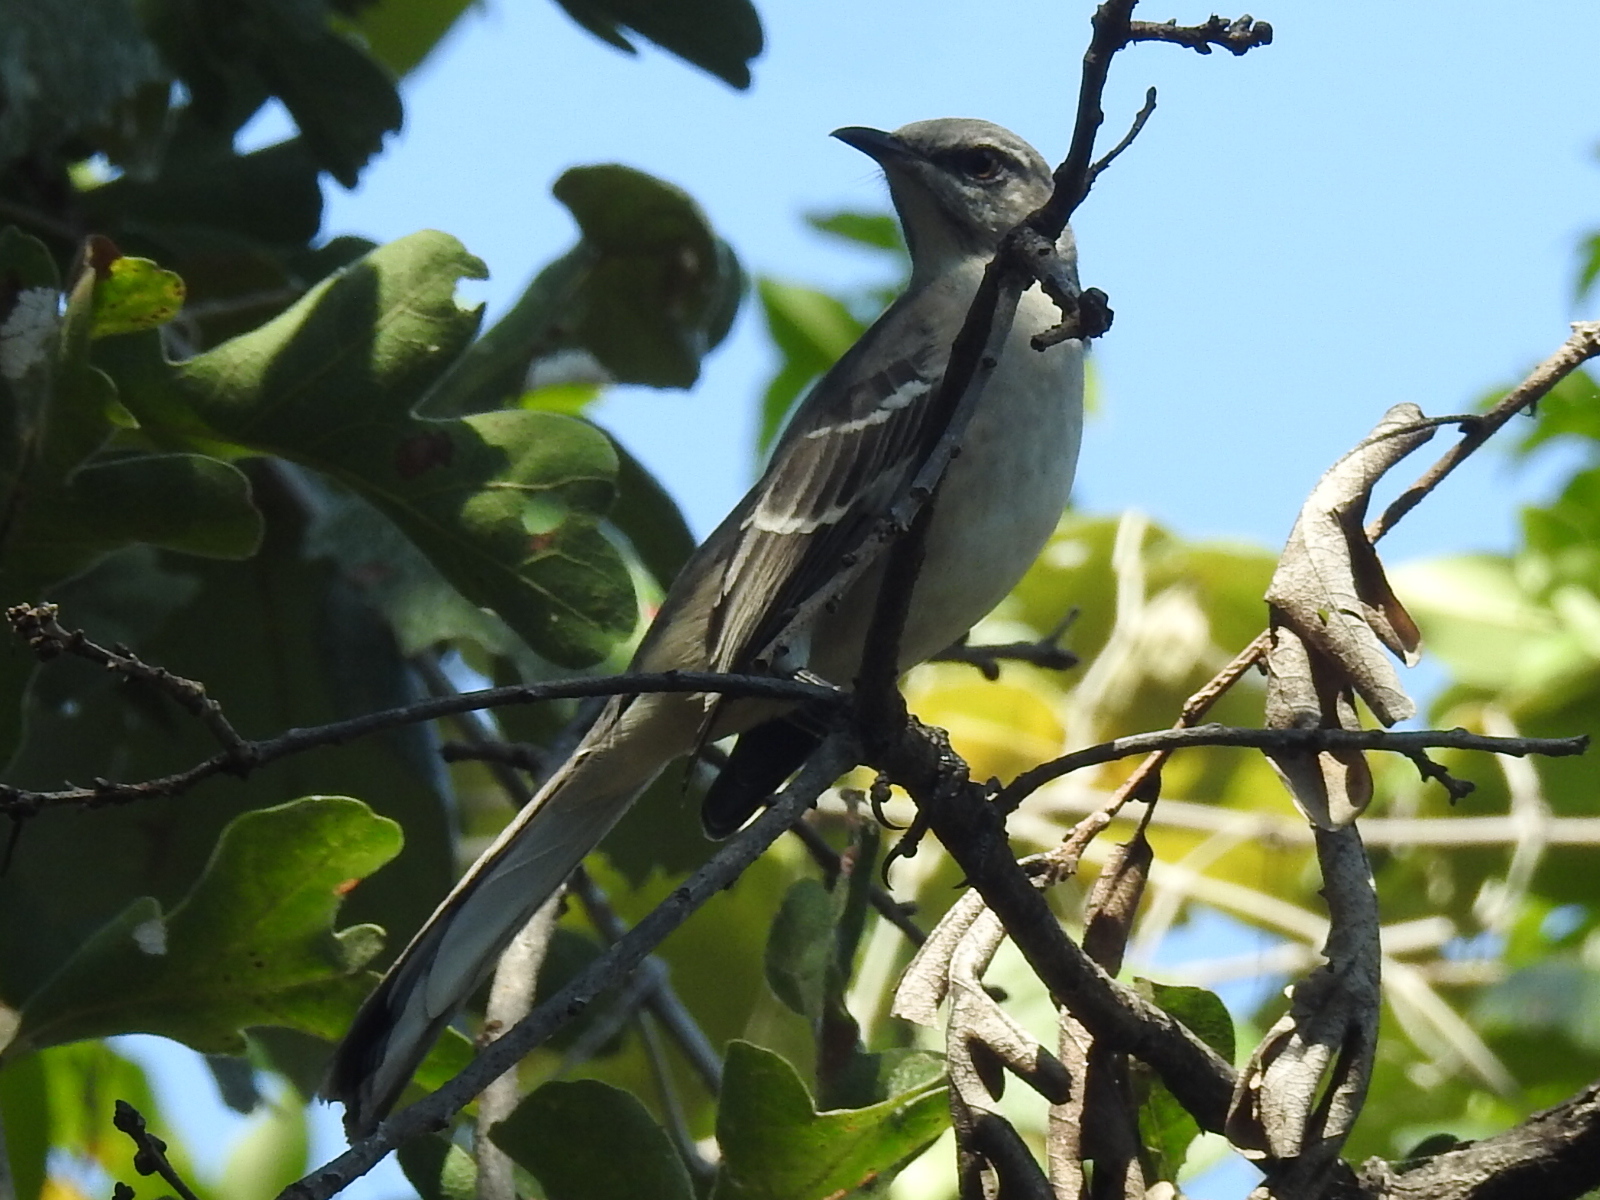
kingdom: Animalia
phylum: Chordata
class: Aves
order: Passeriformes
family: Mimidae
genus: Mimus
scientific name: Mimus polyglottos
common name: Northern mockingbird
